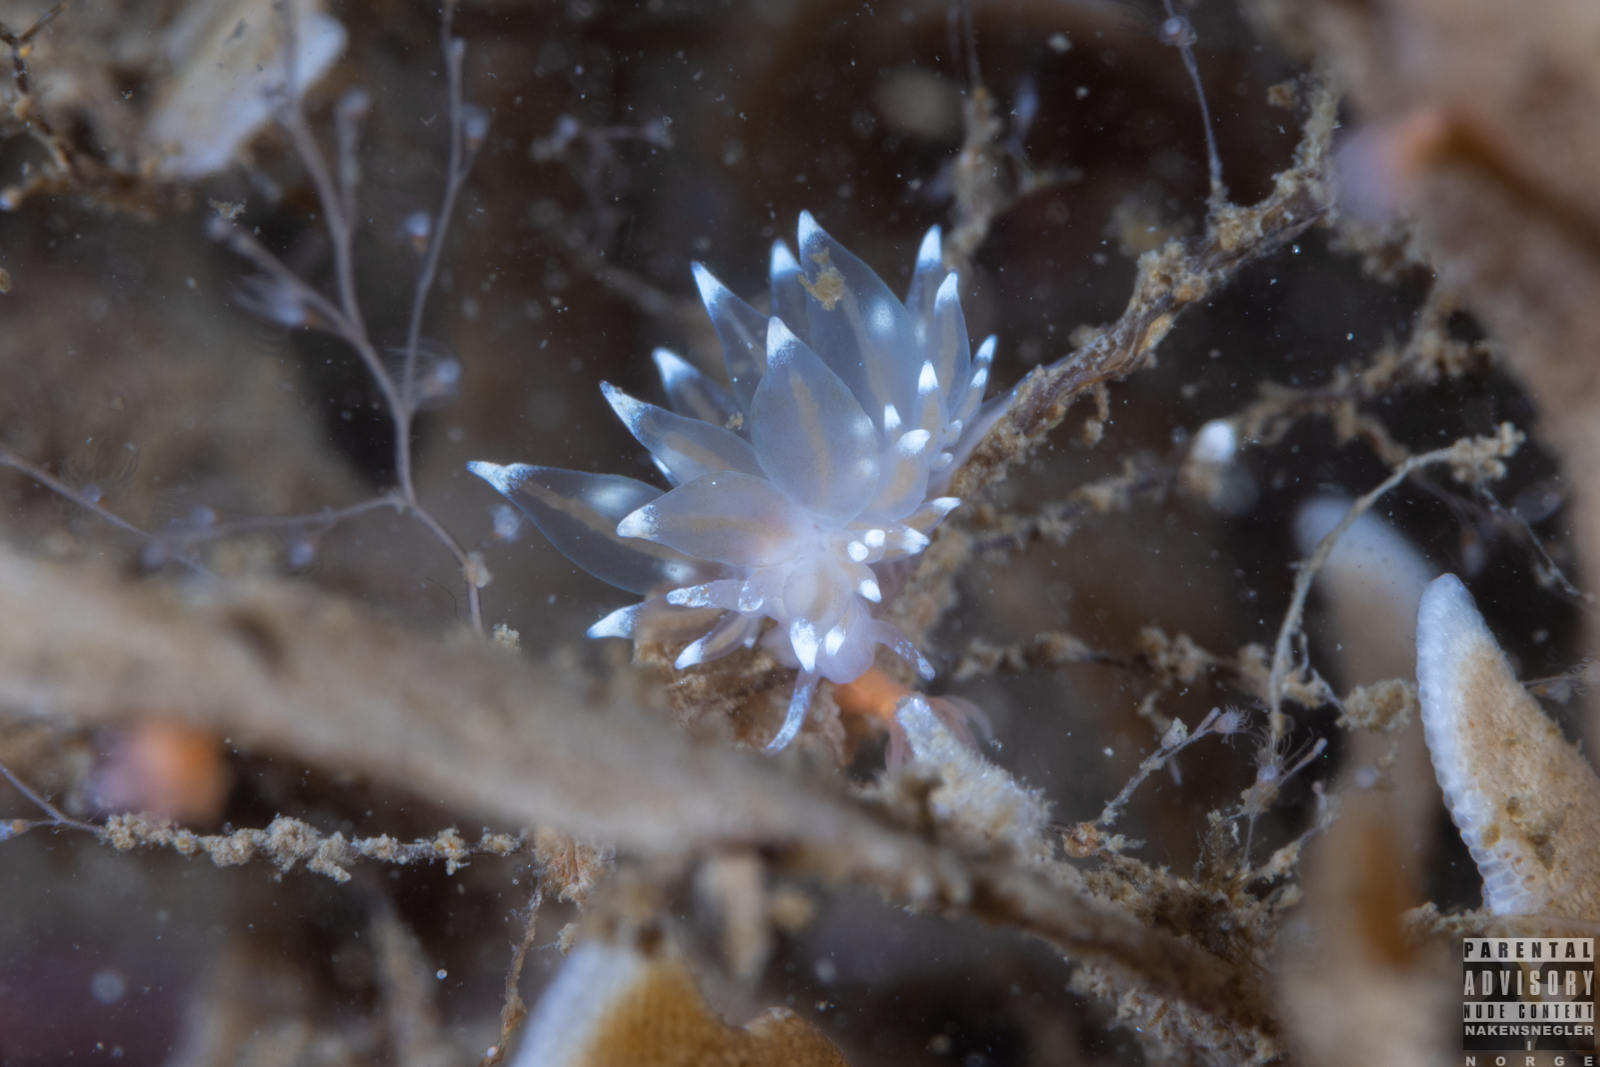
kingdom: Animalia
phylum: Mollusca
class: Gastropoda
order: Nudibranchia
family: Eubranchidae
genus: Amphorina
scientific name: Amphorina linensis
